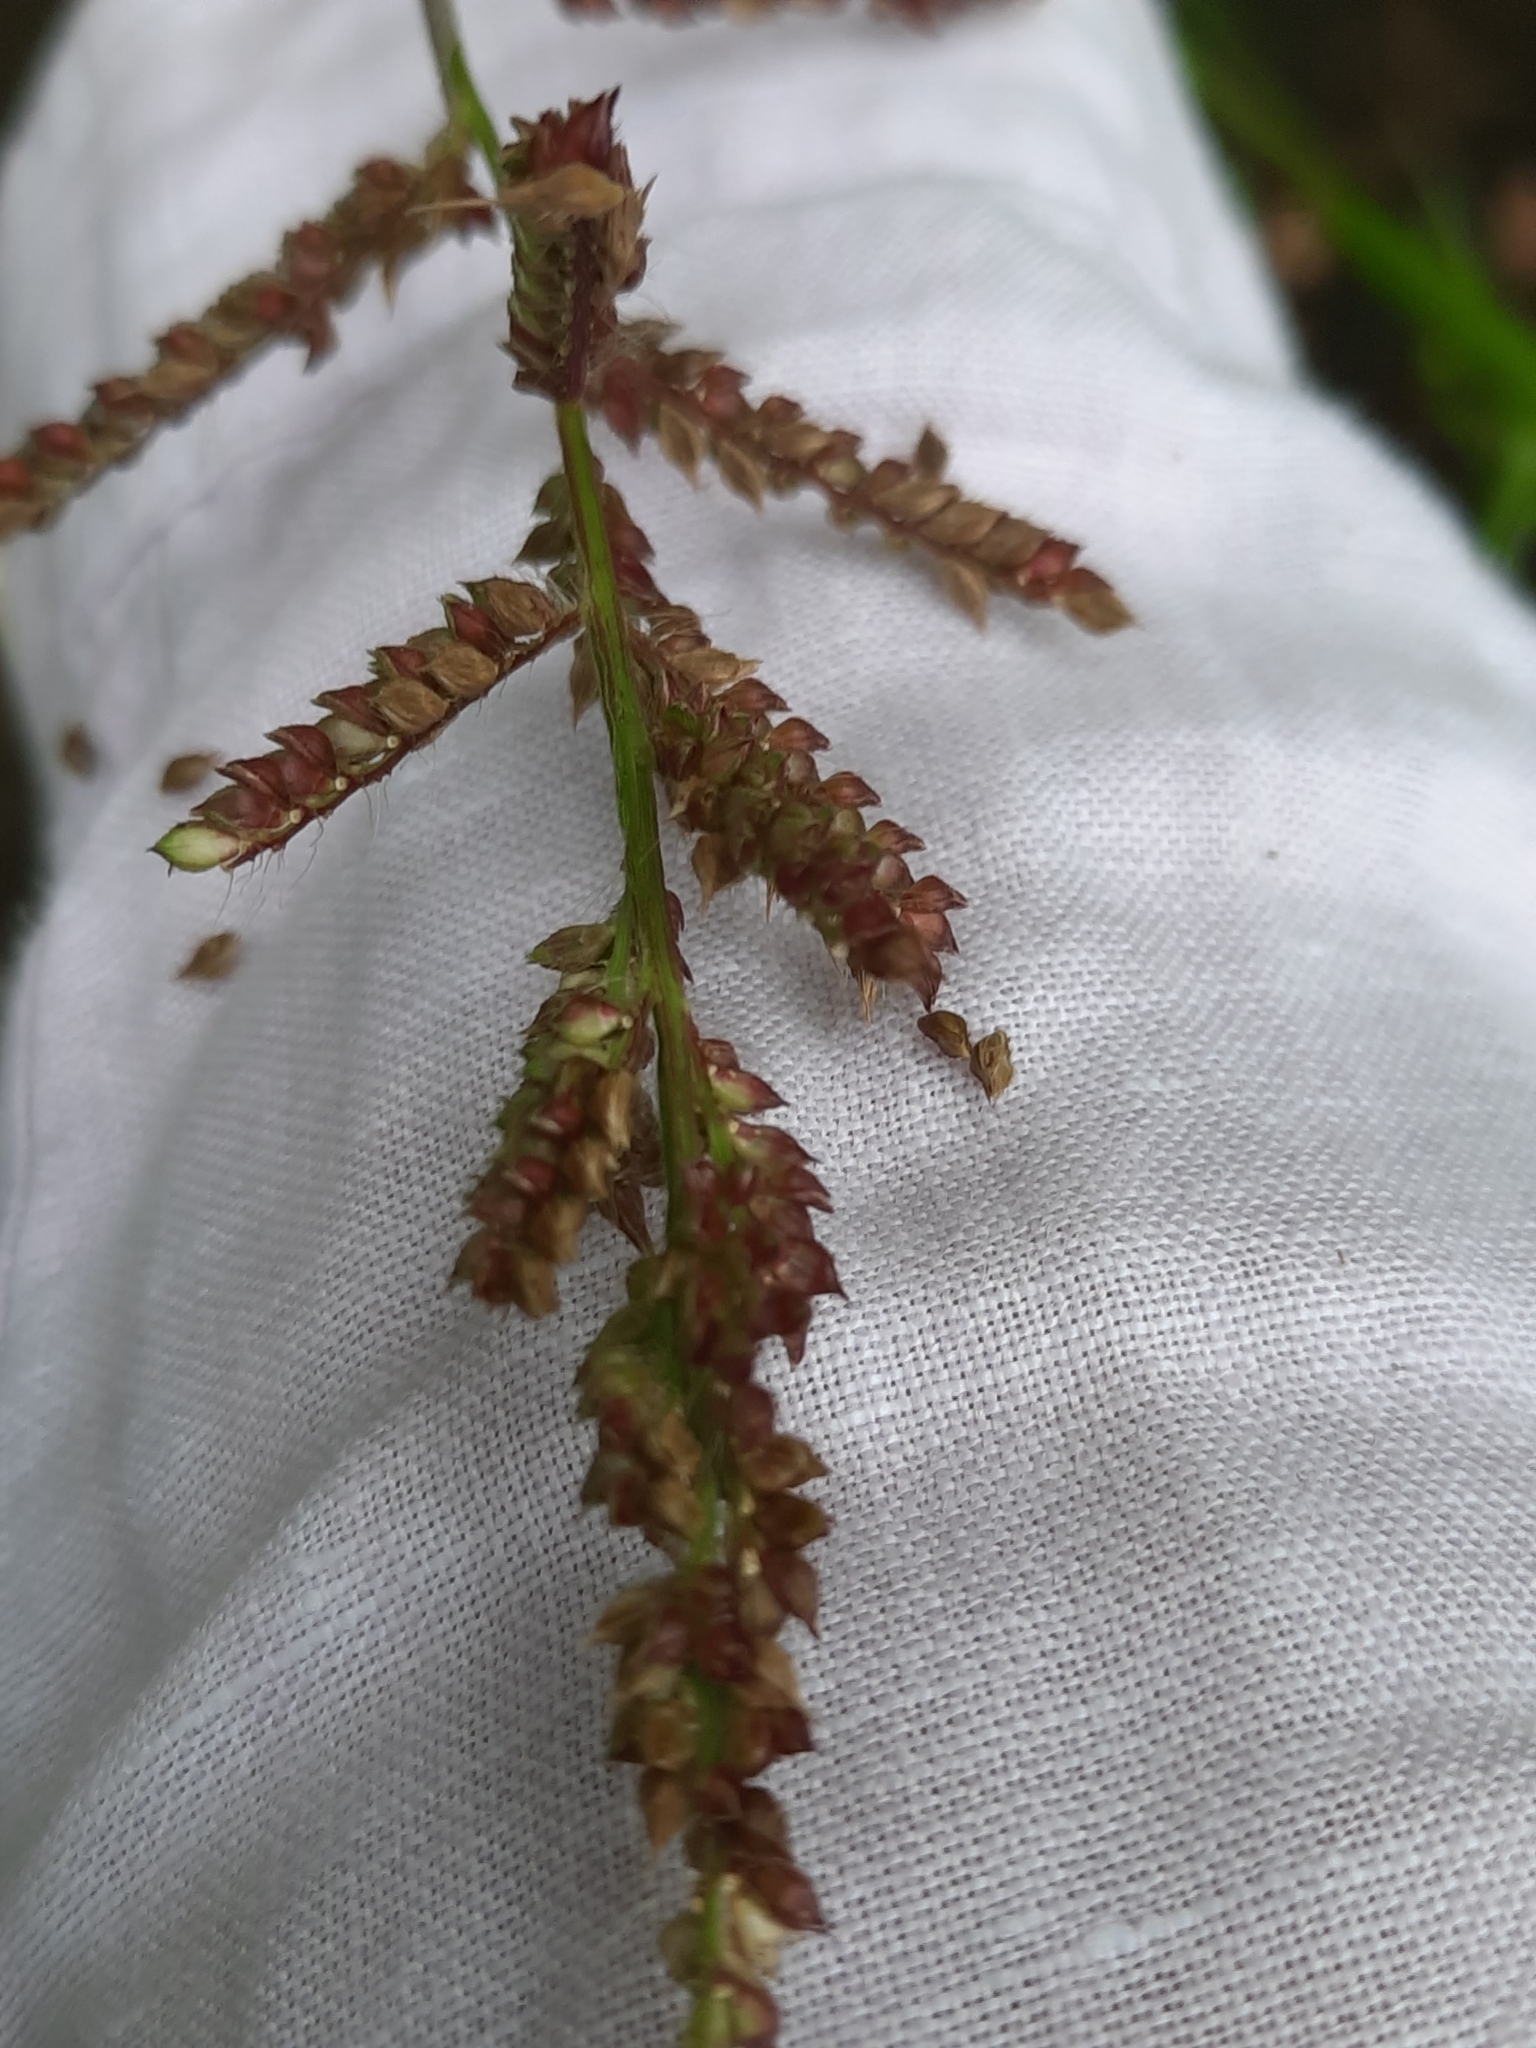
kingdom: Plantae
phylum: Tracheophyta
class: Liliopsida
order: Poales
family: Poaceae
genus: Echinochloa
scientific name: Echinochloa crus-galli
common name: Cockspur
